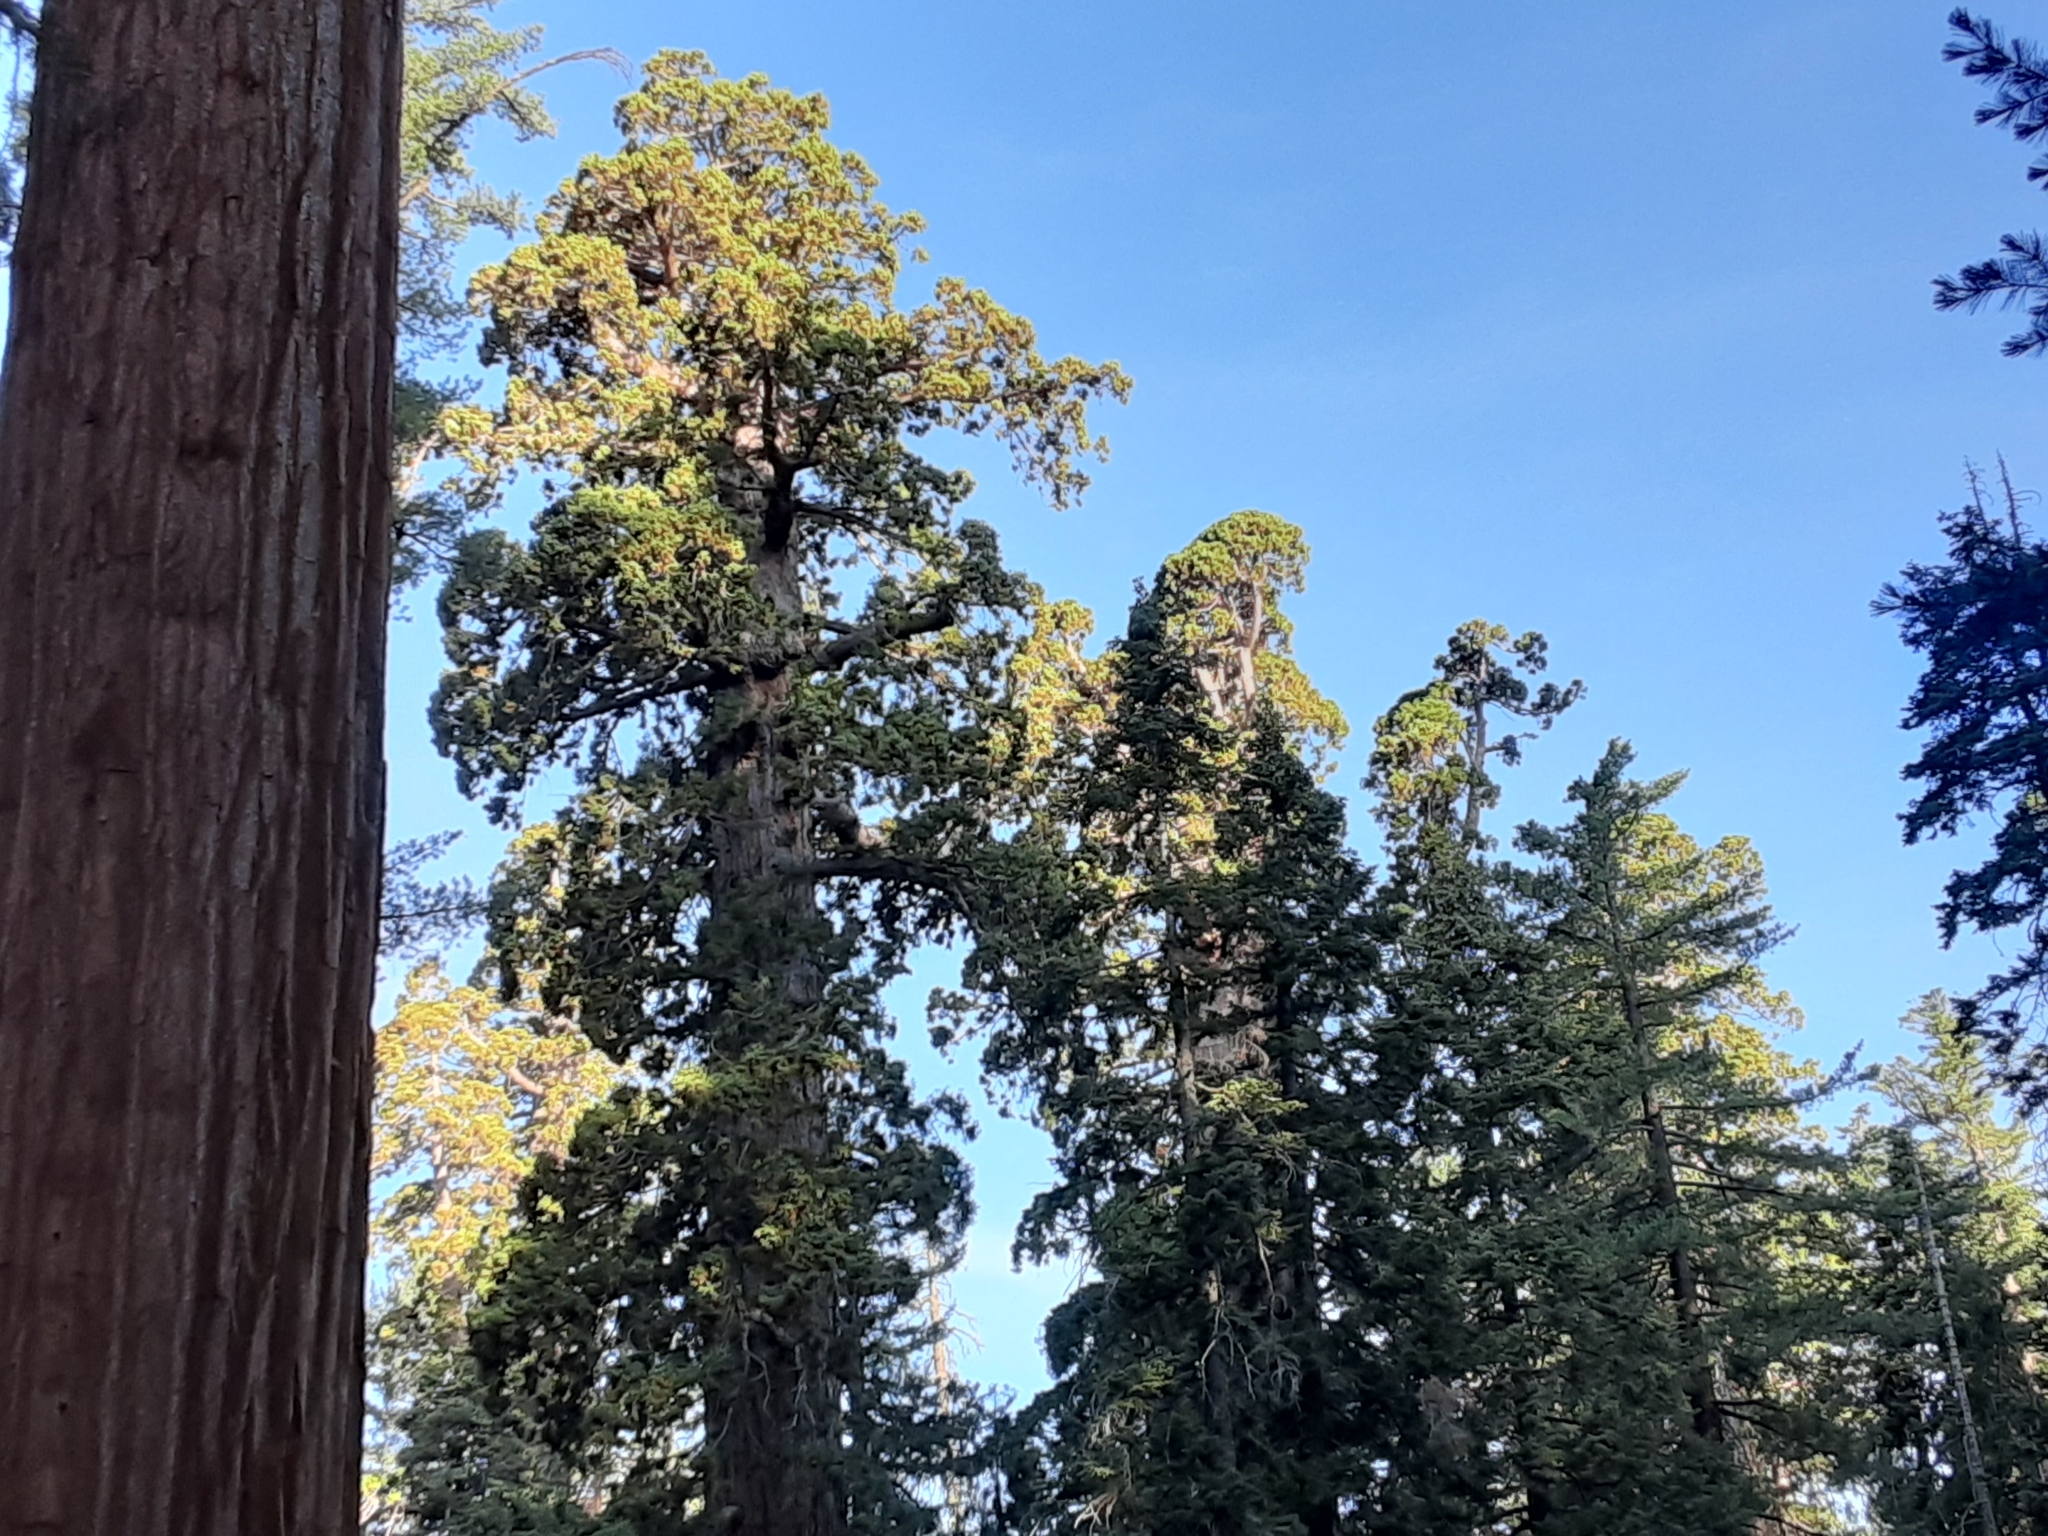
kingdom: Plantae
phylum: Tracheophyta
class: Pinopsida
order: Pinales
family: Cupressaceae
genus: Sequoiadendron
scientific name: Sequoiadendron giganteum
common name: Wellingtonia
